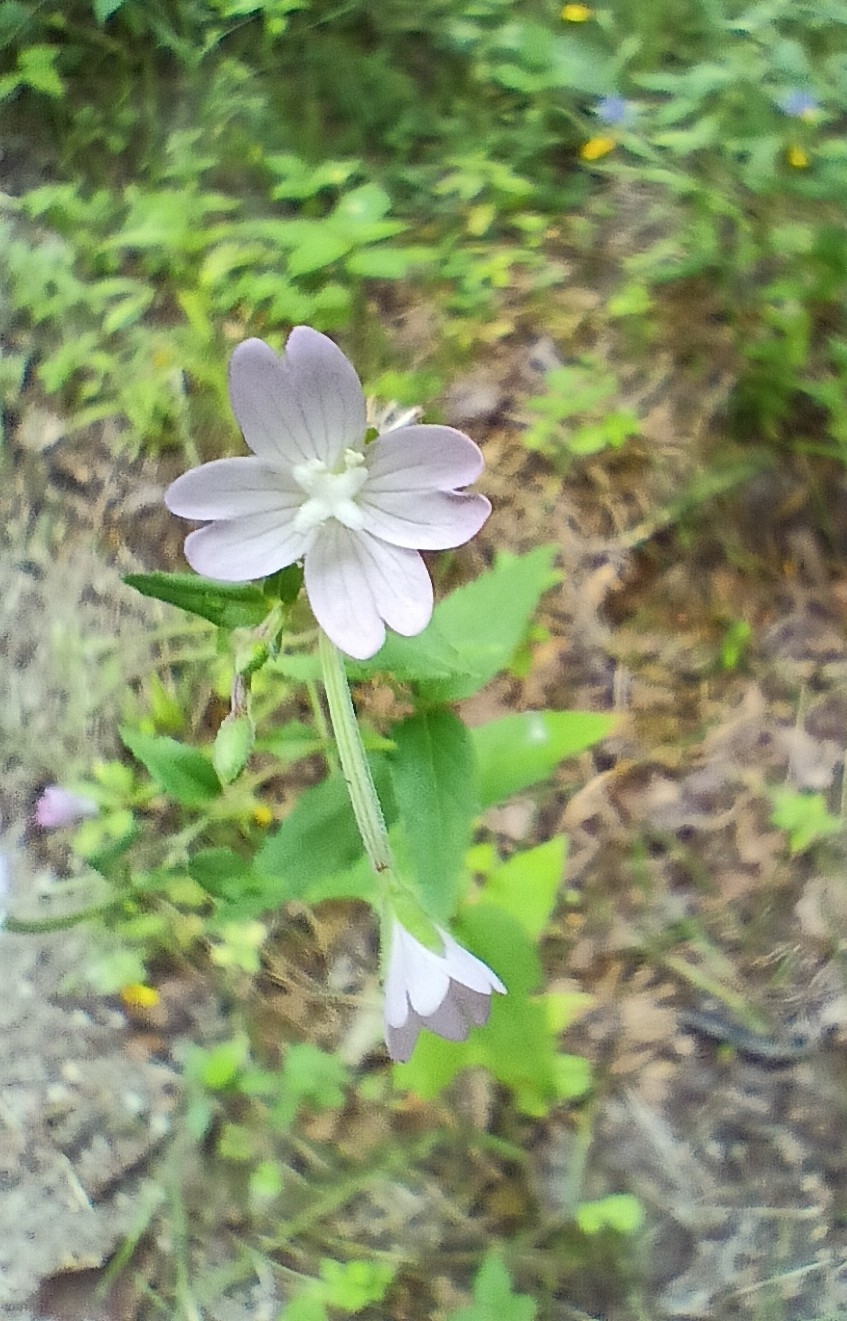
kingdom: Plantae
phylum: Tracheophyta
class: Magnoliopsida
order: Myrtales
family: Onagraceae
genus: Epilobium
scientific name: Epilobium montanum
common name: Broad-leaved willowherb
